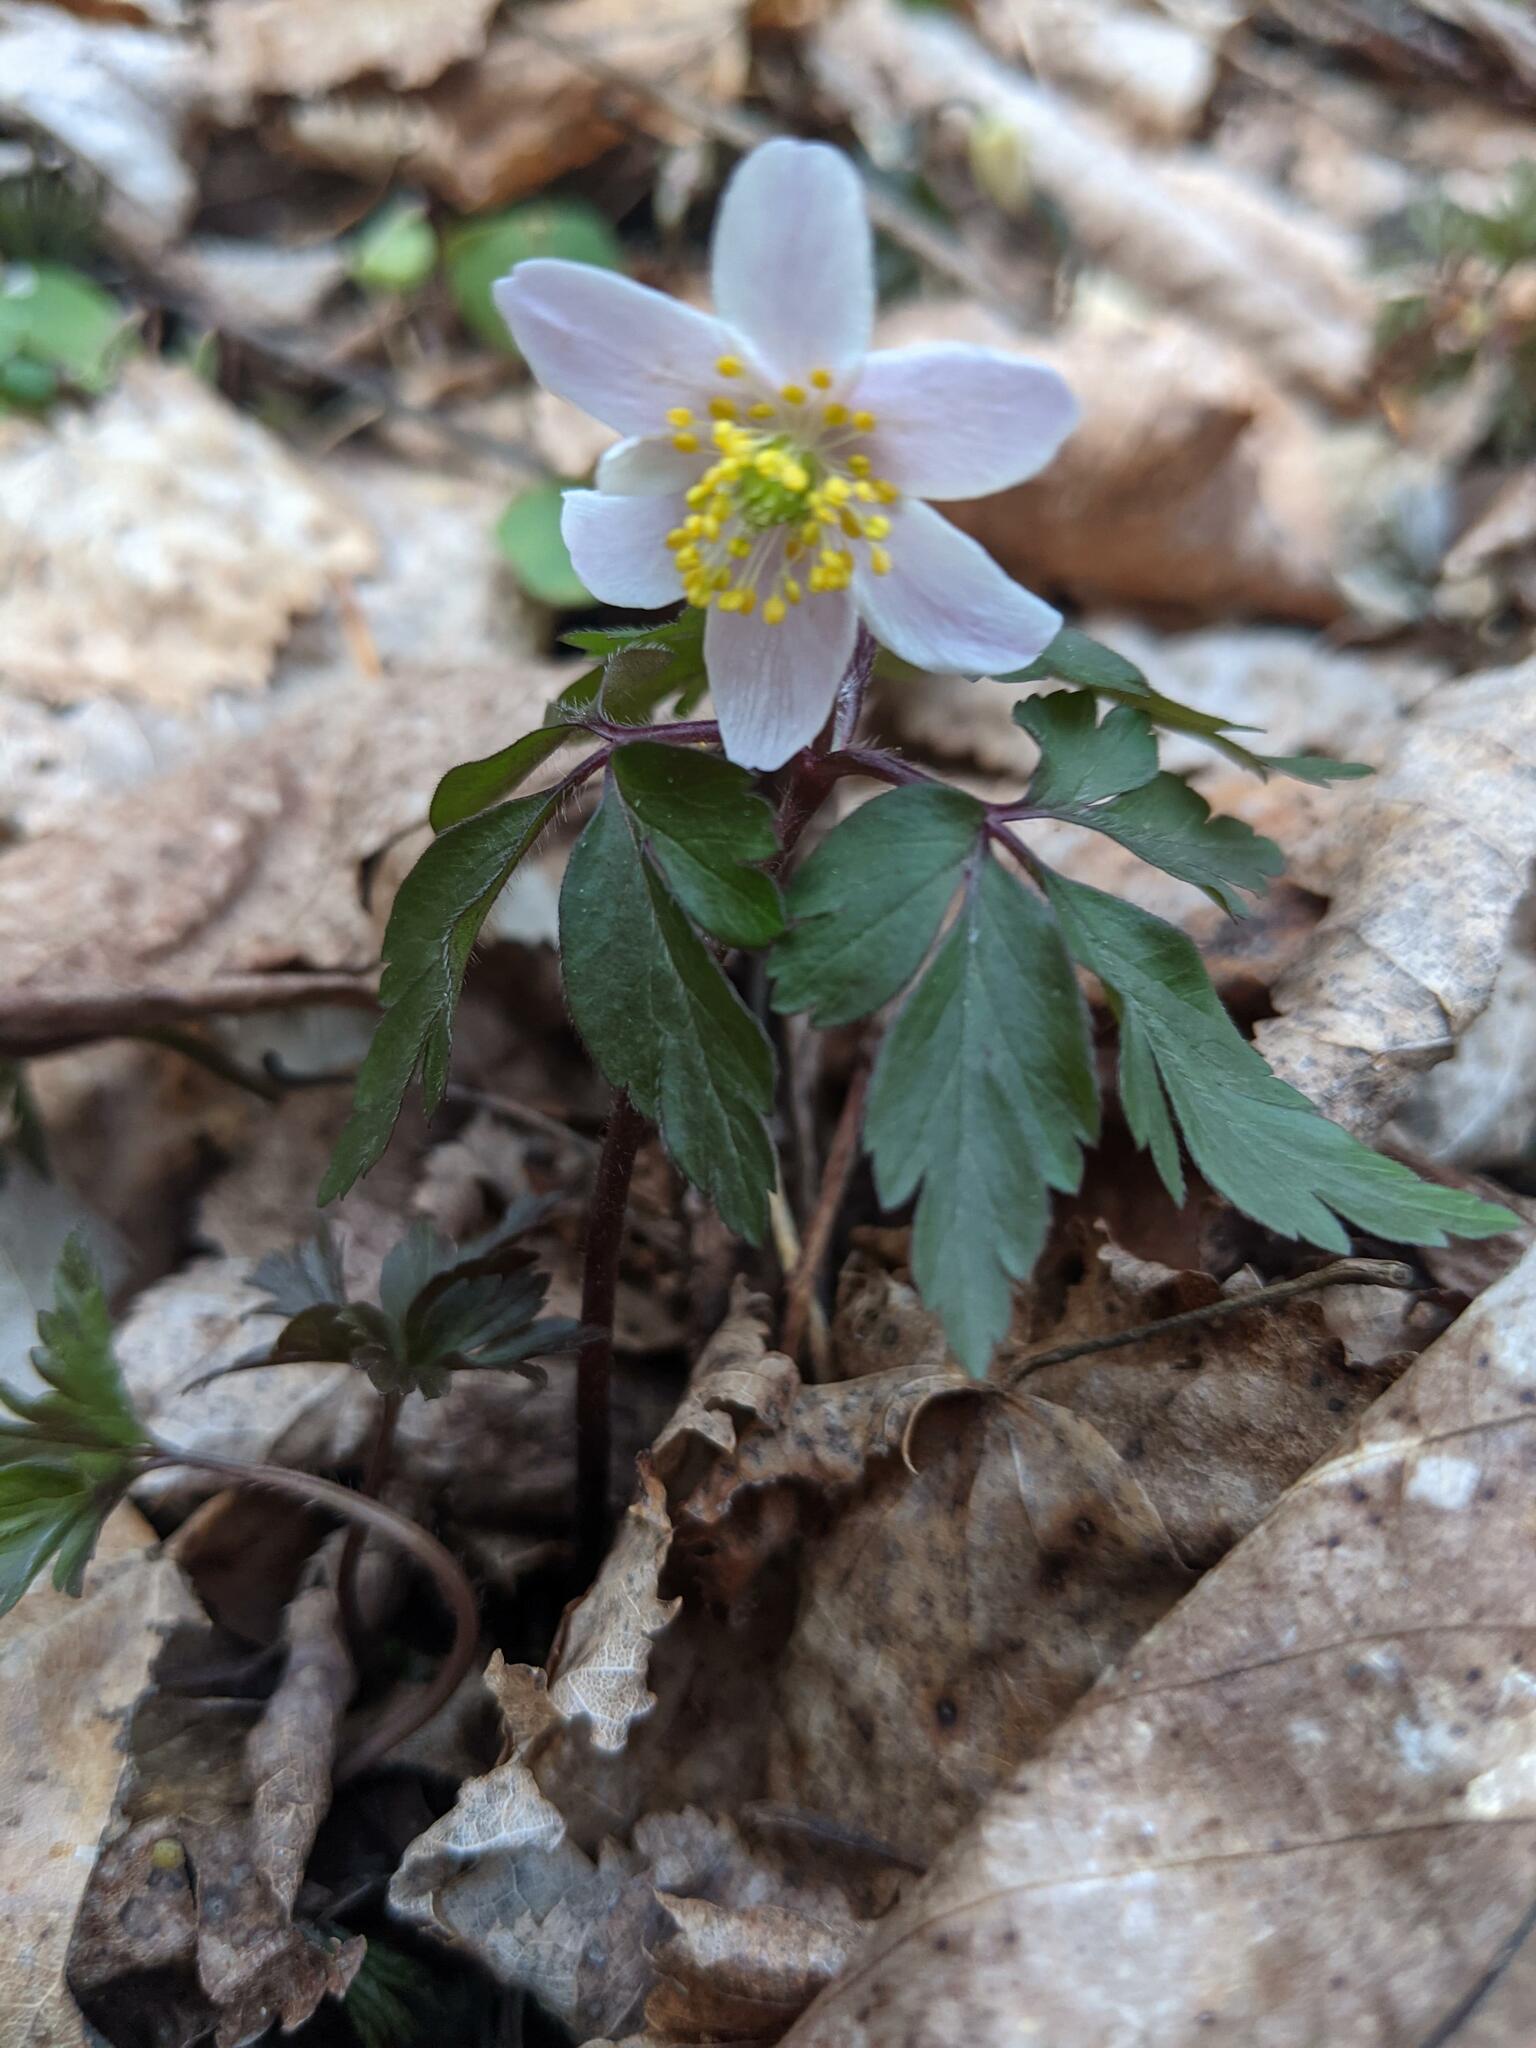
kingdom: Plantae
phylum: Tracheophyta
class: Magnoliopsida
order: Ranunculales
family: Ranunculaceae
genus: Anemone
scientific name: Anemone nemorosa
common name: Wood anemone
